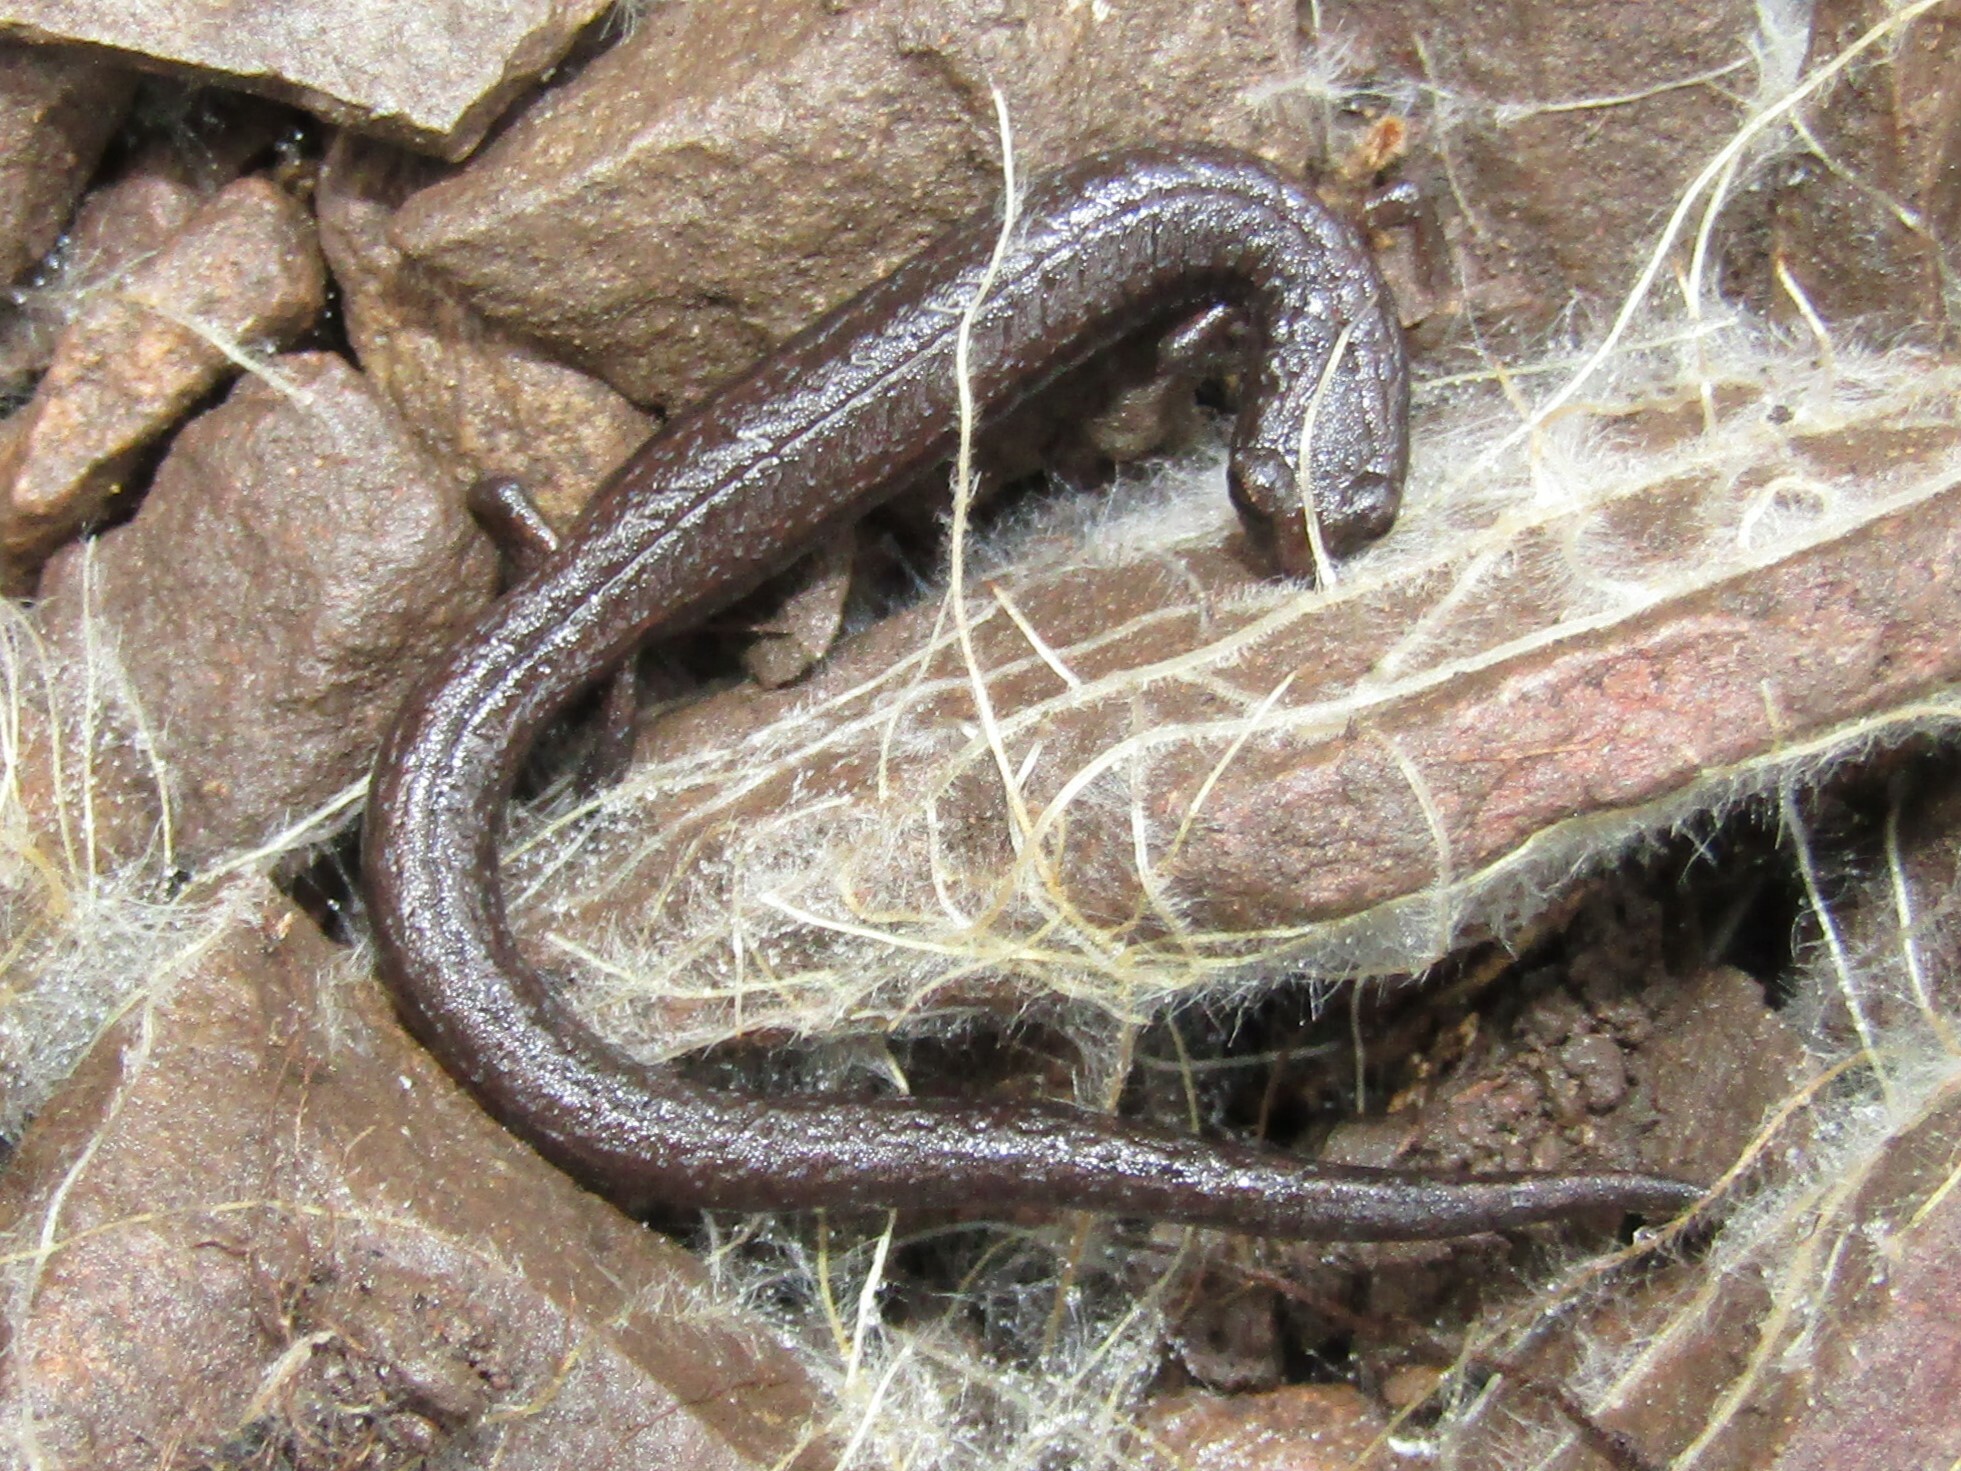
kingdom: Animalia
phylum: Chordata
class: Amphibia
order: Caudata
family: Plethodontidae
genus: Batrachoseps
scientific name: Batrachoseps diabolicus
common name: Hell hollow slender salamander
